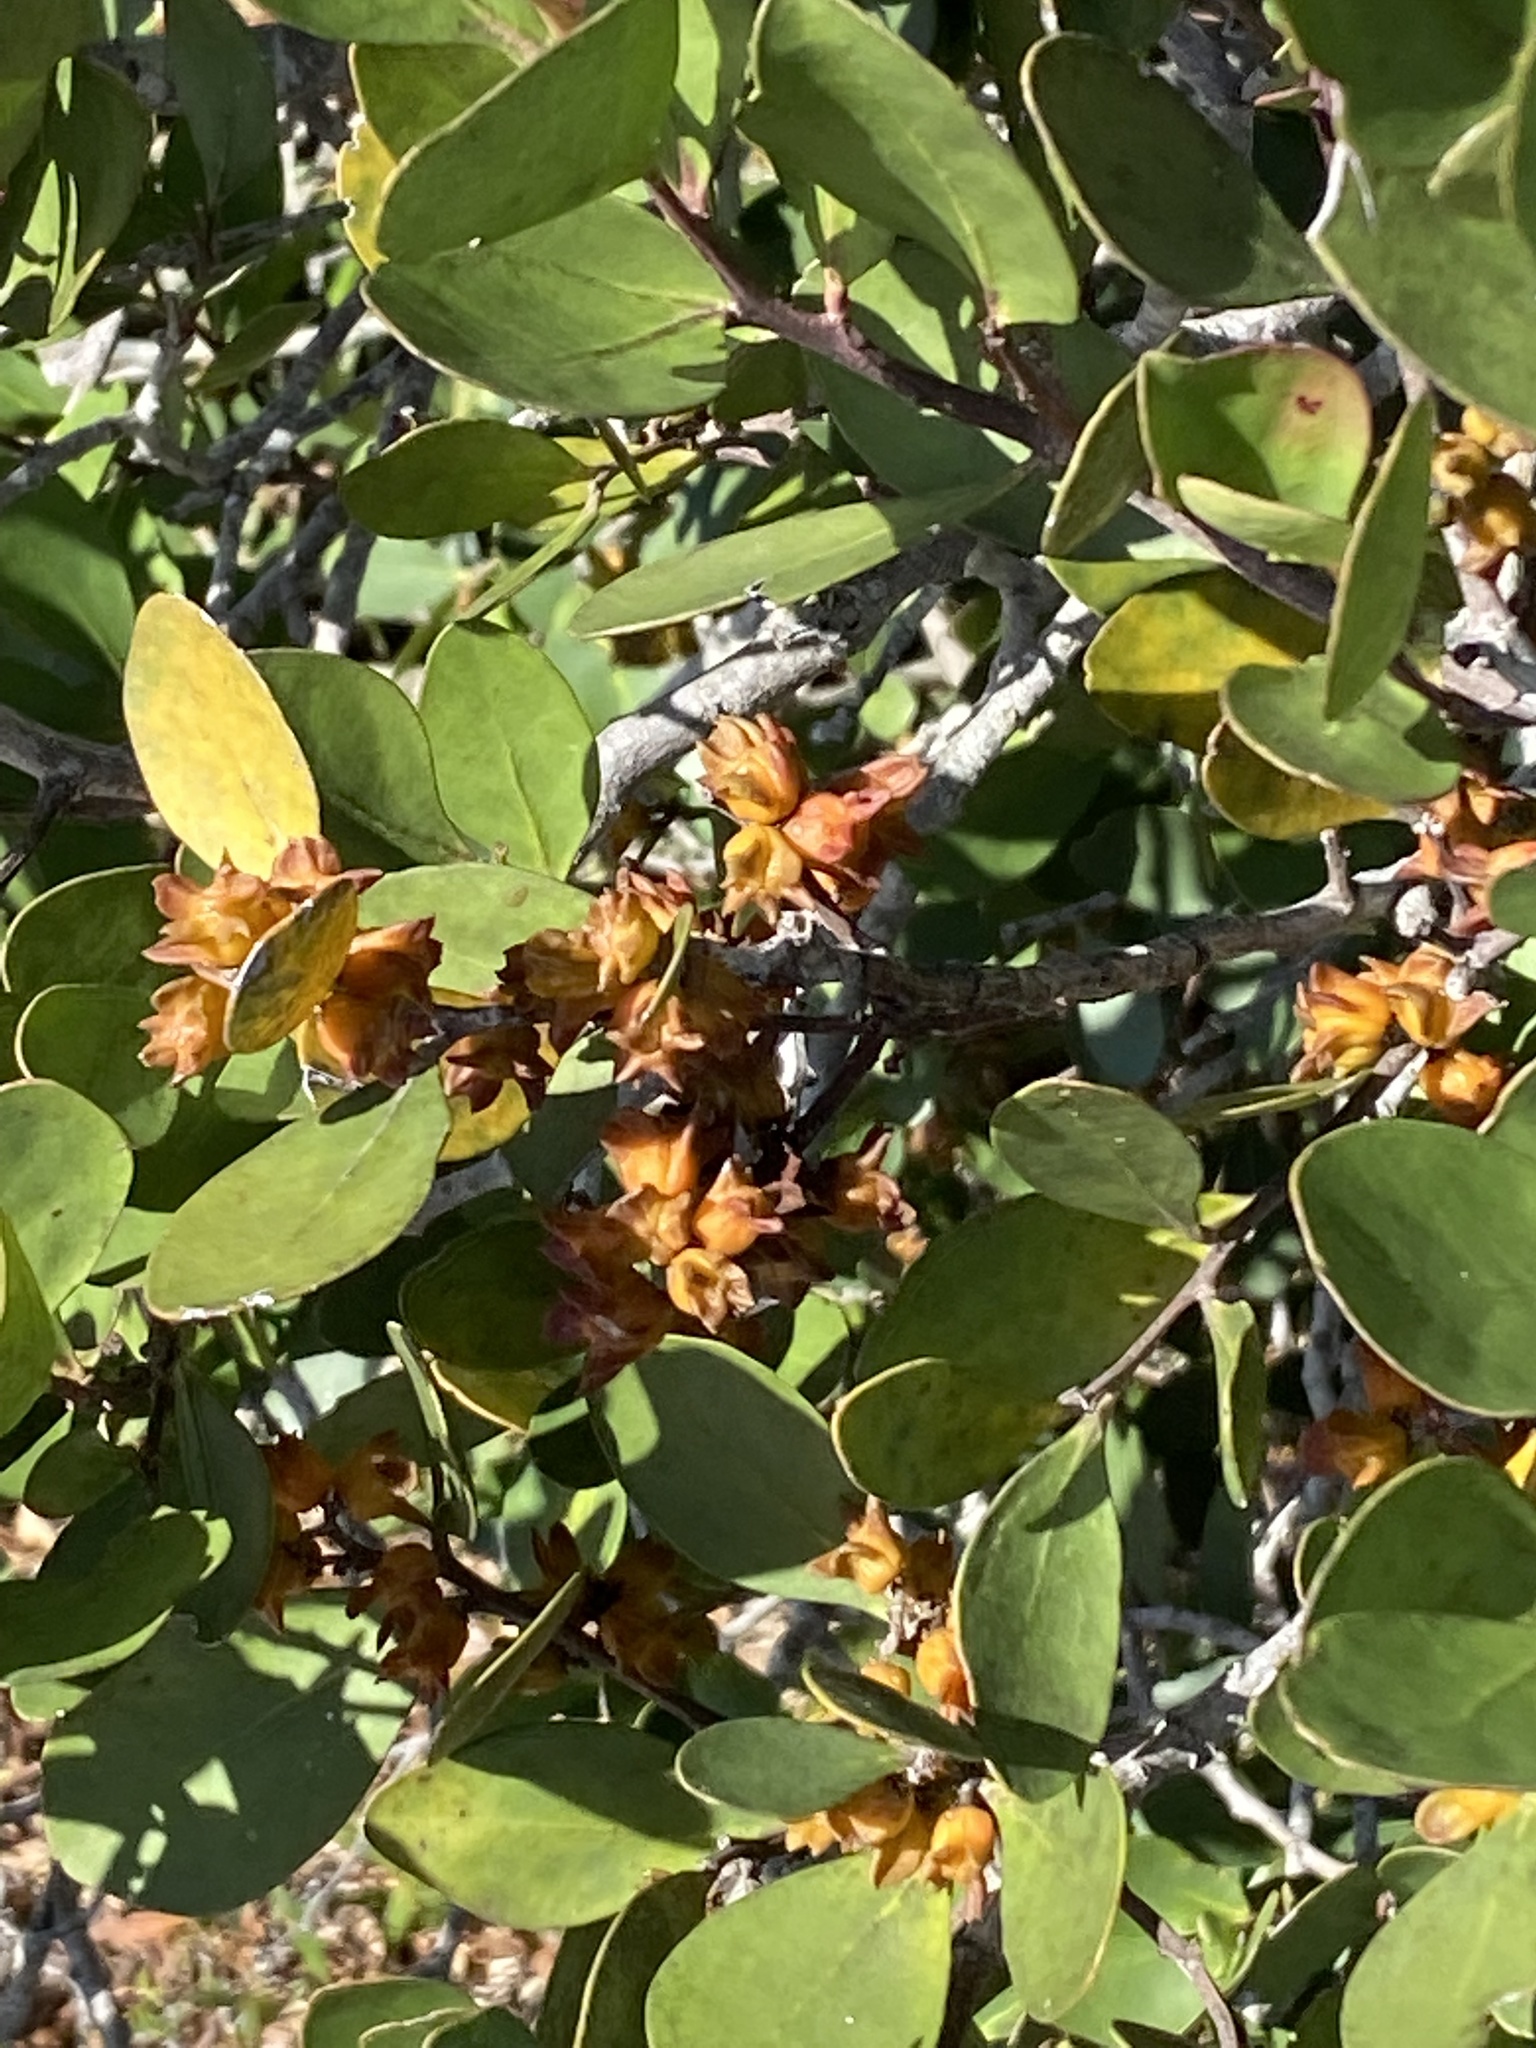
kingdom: Plantae
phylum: Tracheophyta
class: Magnoliopsida
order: Celastrales
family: Celastraceae
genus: Pterocelastrus
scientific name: Pterocelastrus tricuspidatus
